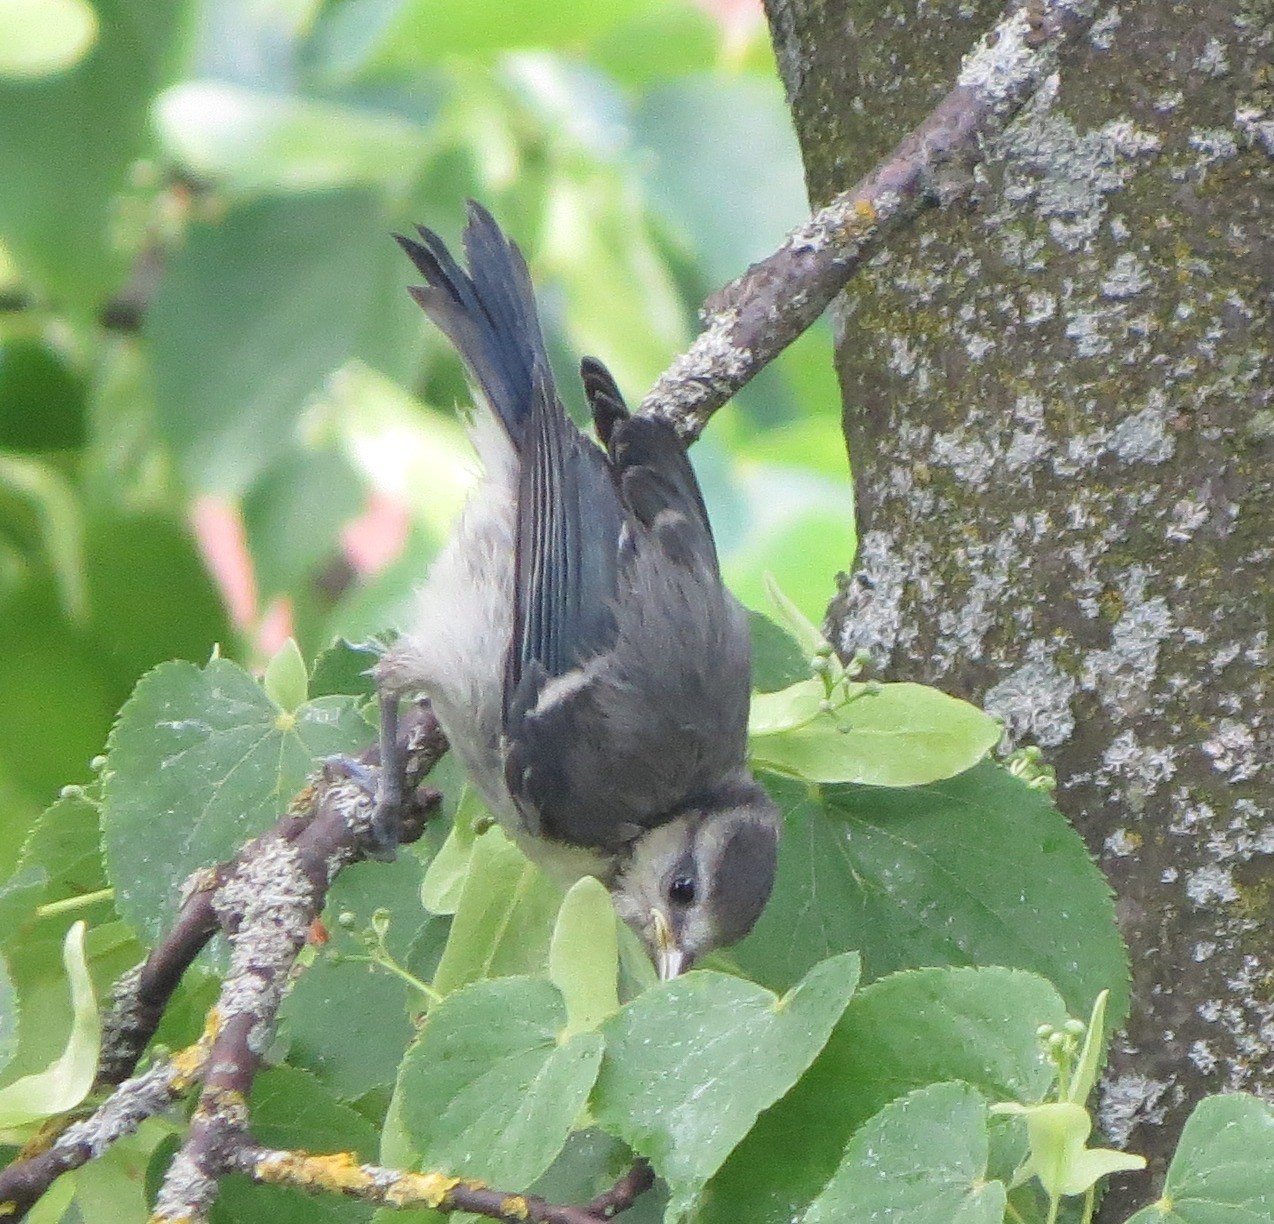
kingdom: Animalia
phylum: Chordata
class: Aves
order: Passeriformes
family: Paridae
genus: Cyanistes
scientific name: Cyanistes caeruleus
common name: Eurasian blue tit
